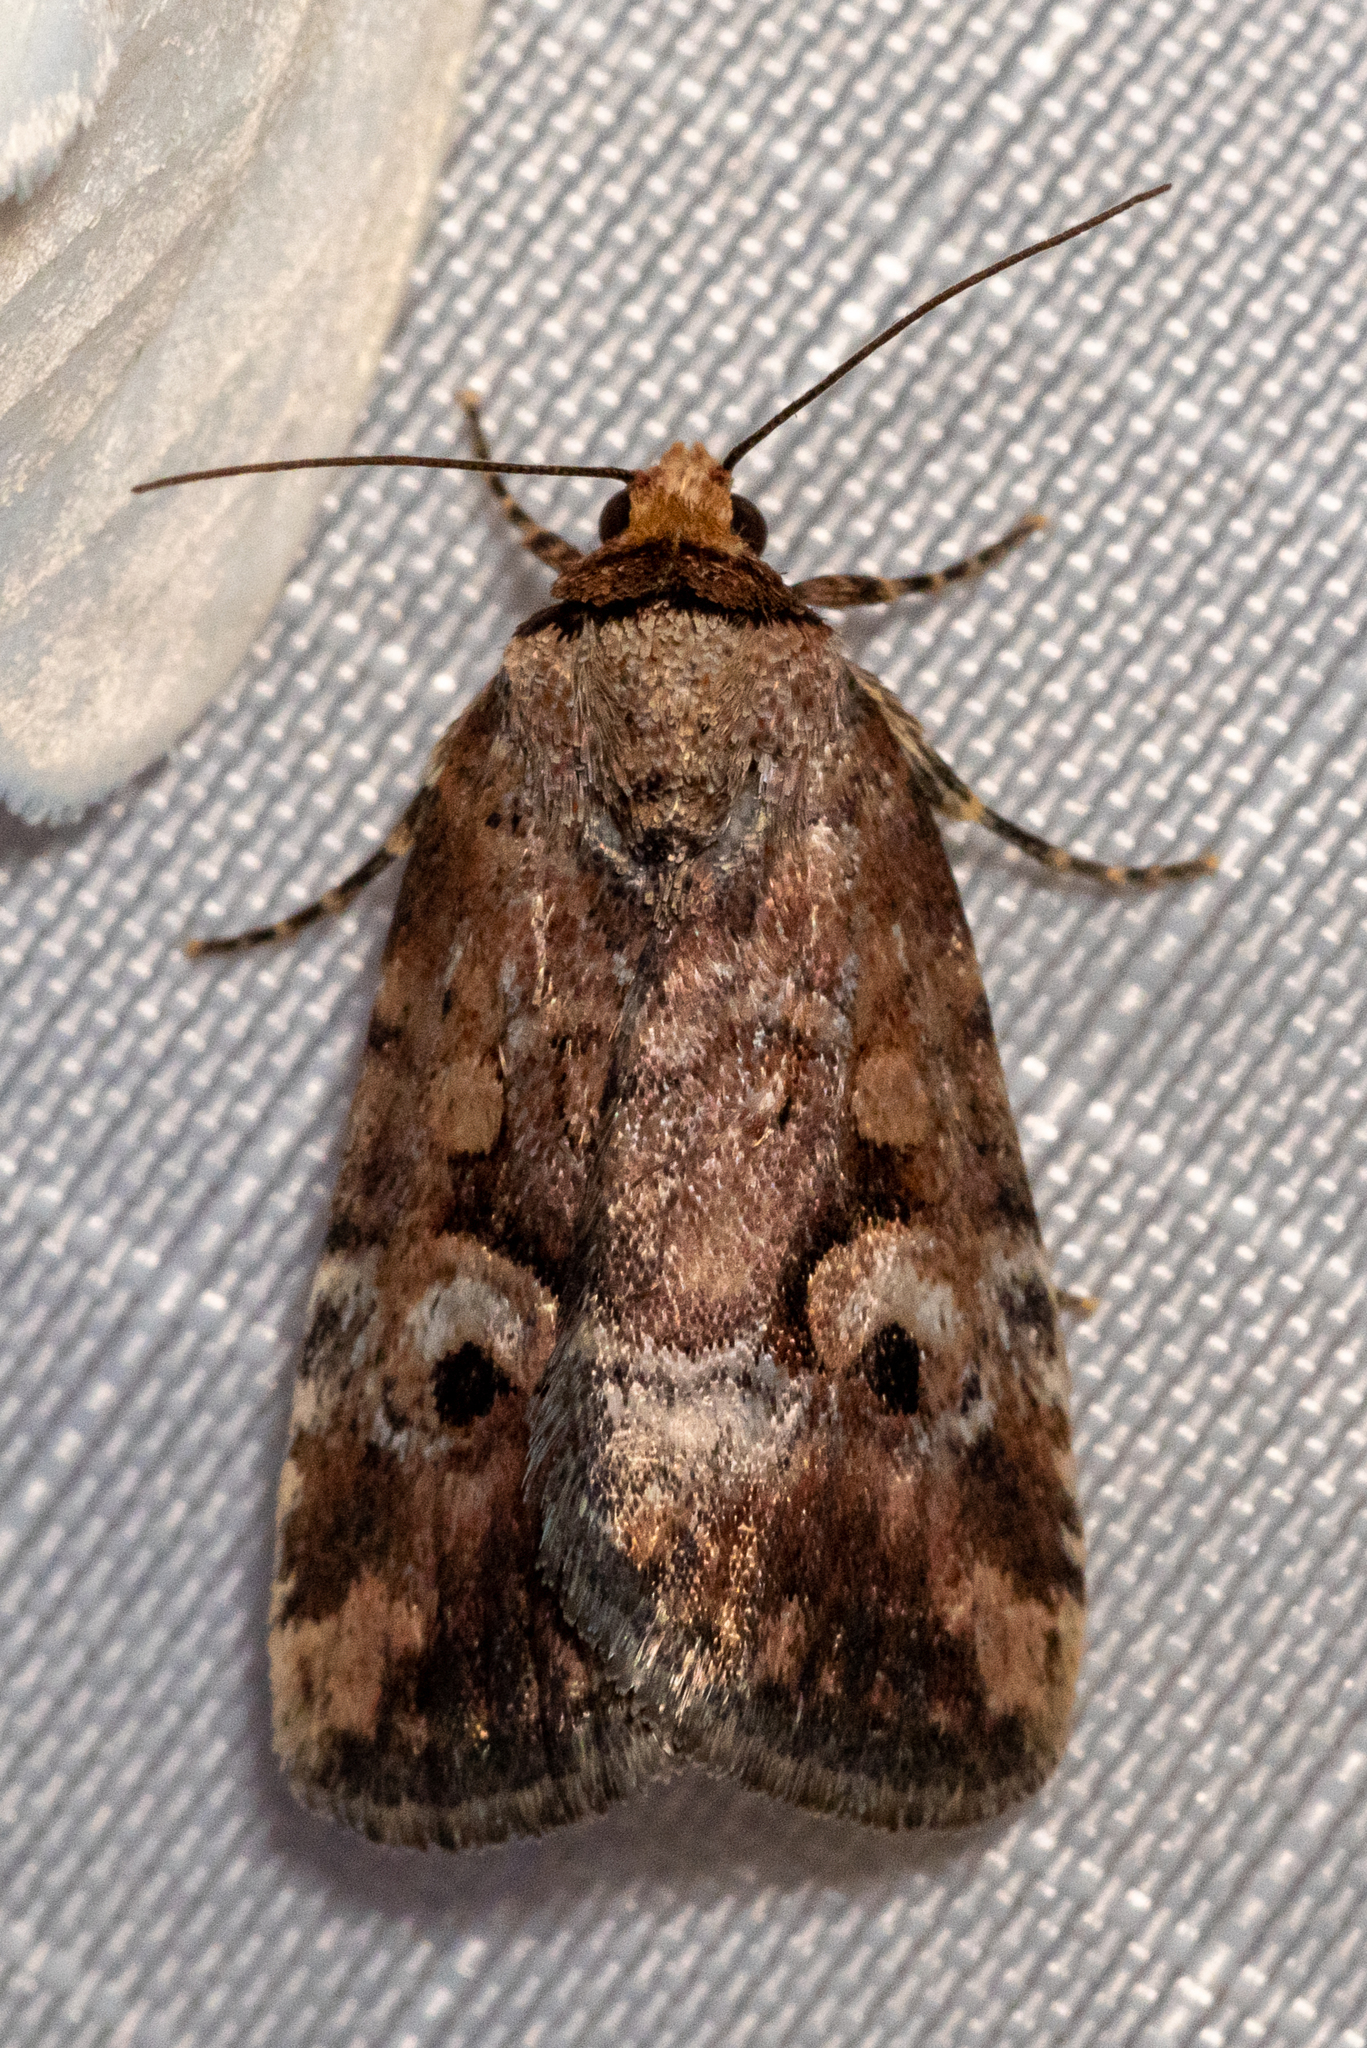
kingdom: Animalia
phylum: Arthropoda
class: Insecta
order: Lepidoptera
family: Noctuidae
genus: Elaphria
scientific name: Elaphria alapallida
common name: Pale-winged midget
